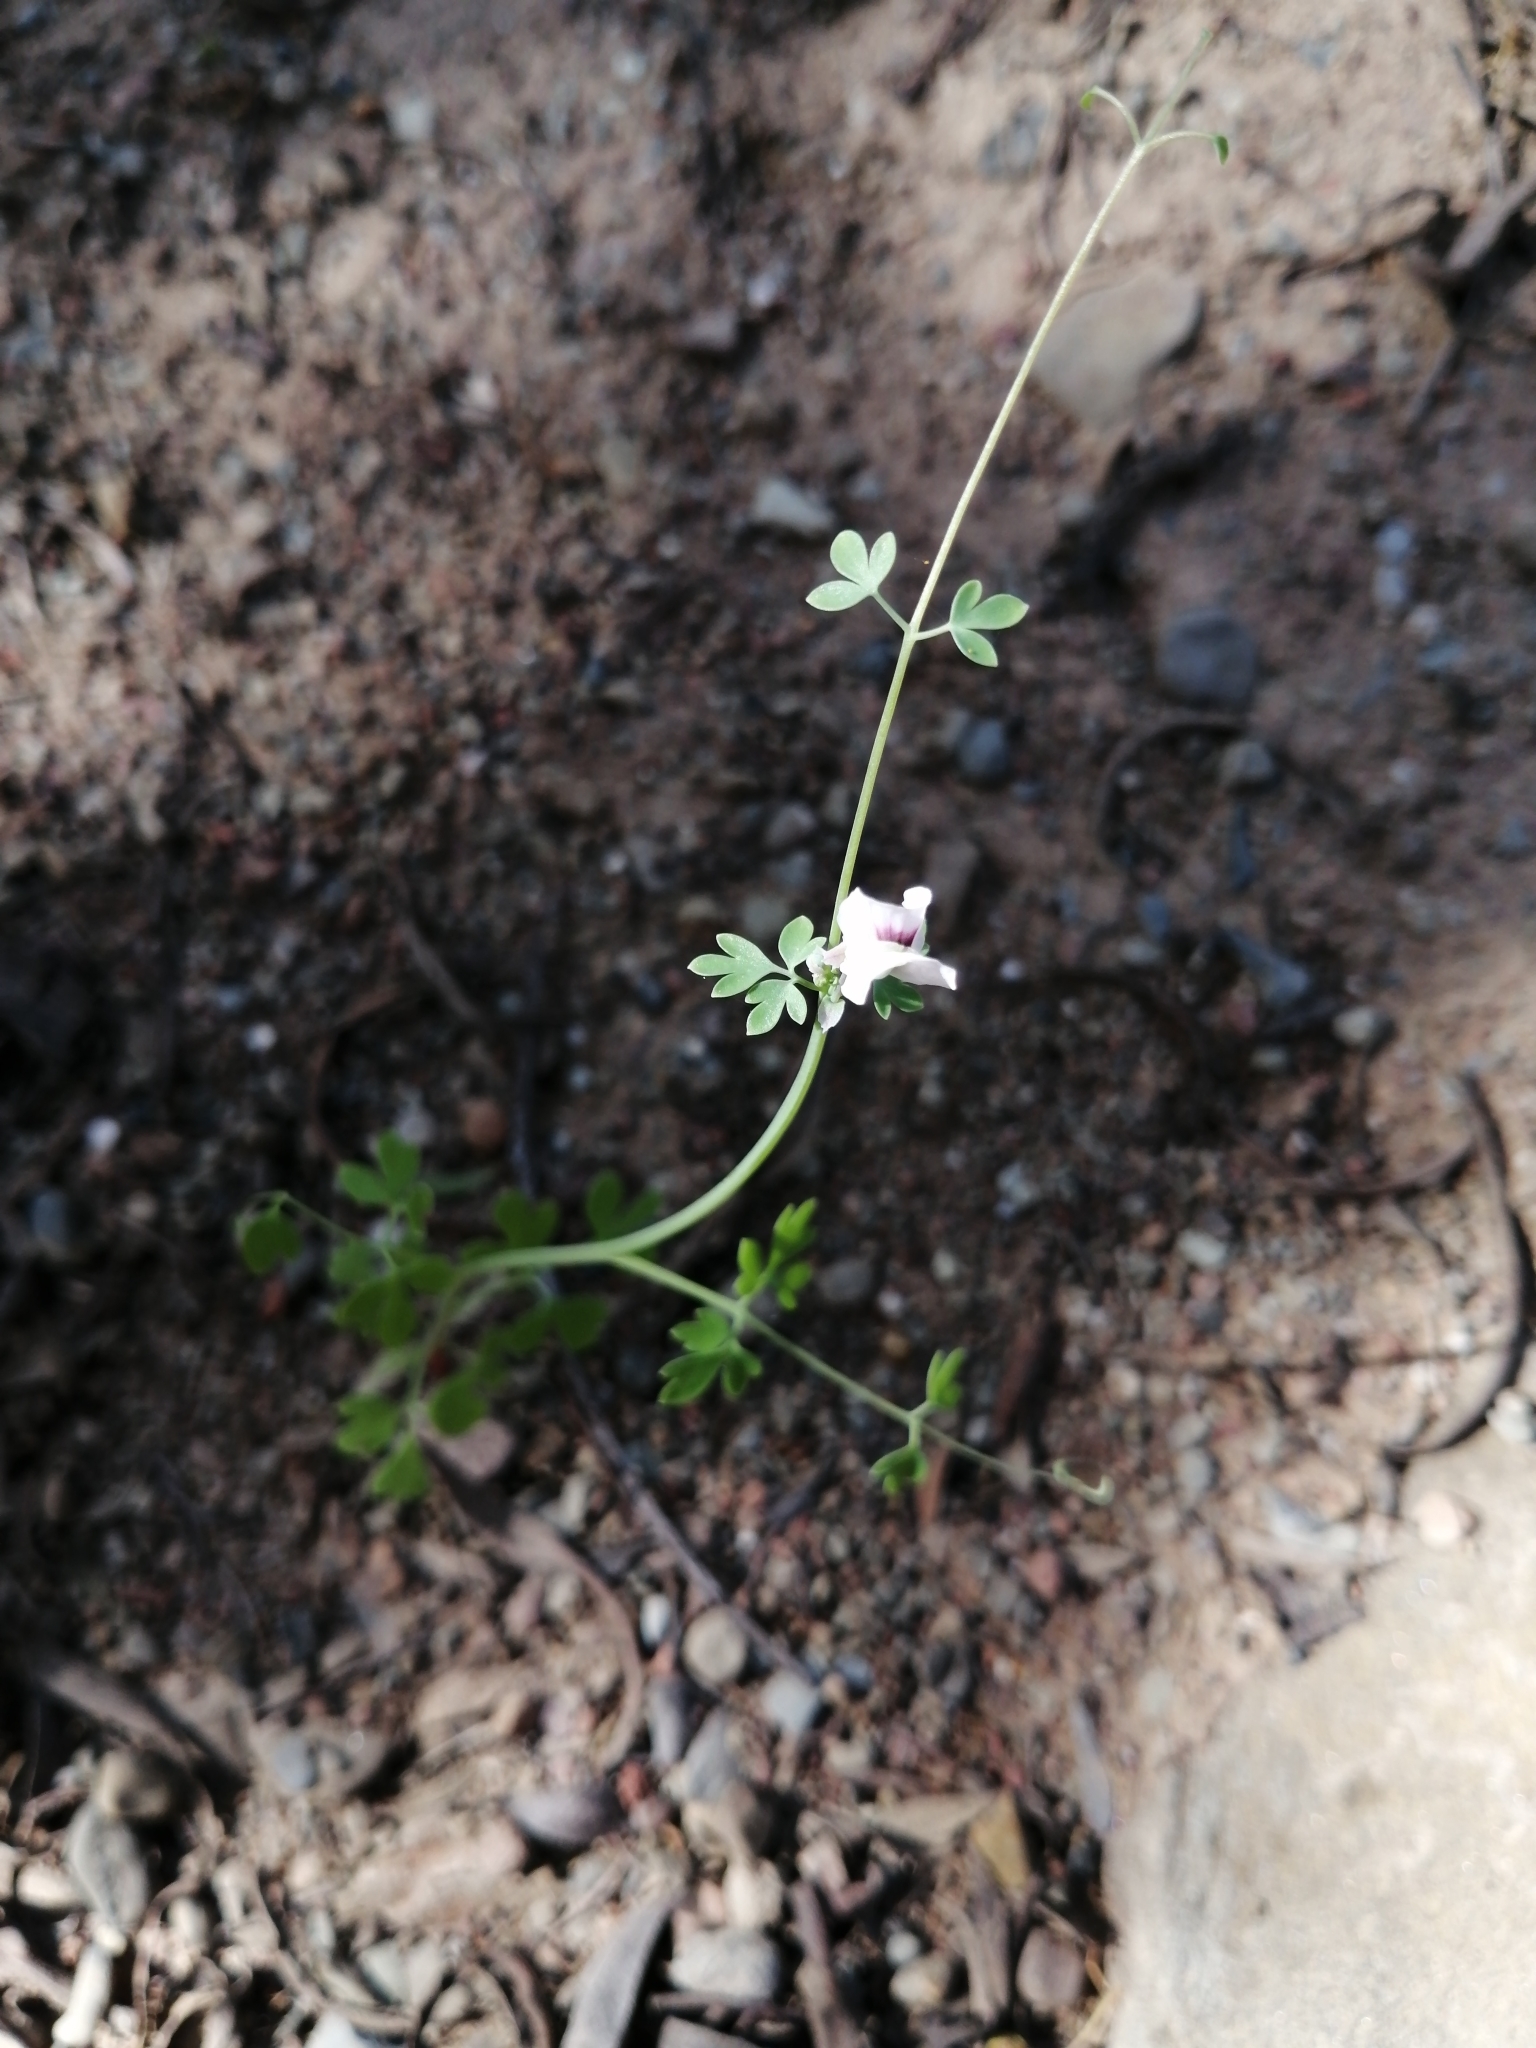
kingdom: Plantae
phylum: Tracheophyta
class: Magnoliopsida
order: Ranunculales
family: Papaveraceae
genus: Cysticapnos
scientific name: Cysticapnos vesicaria
